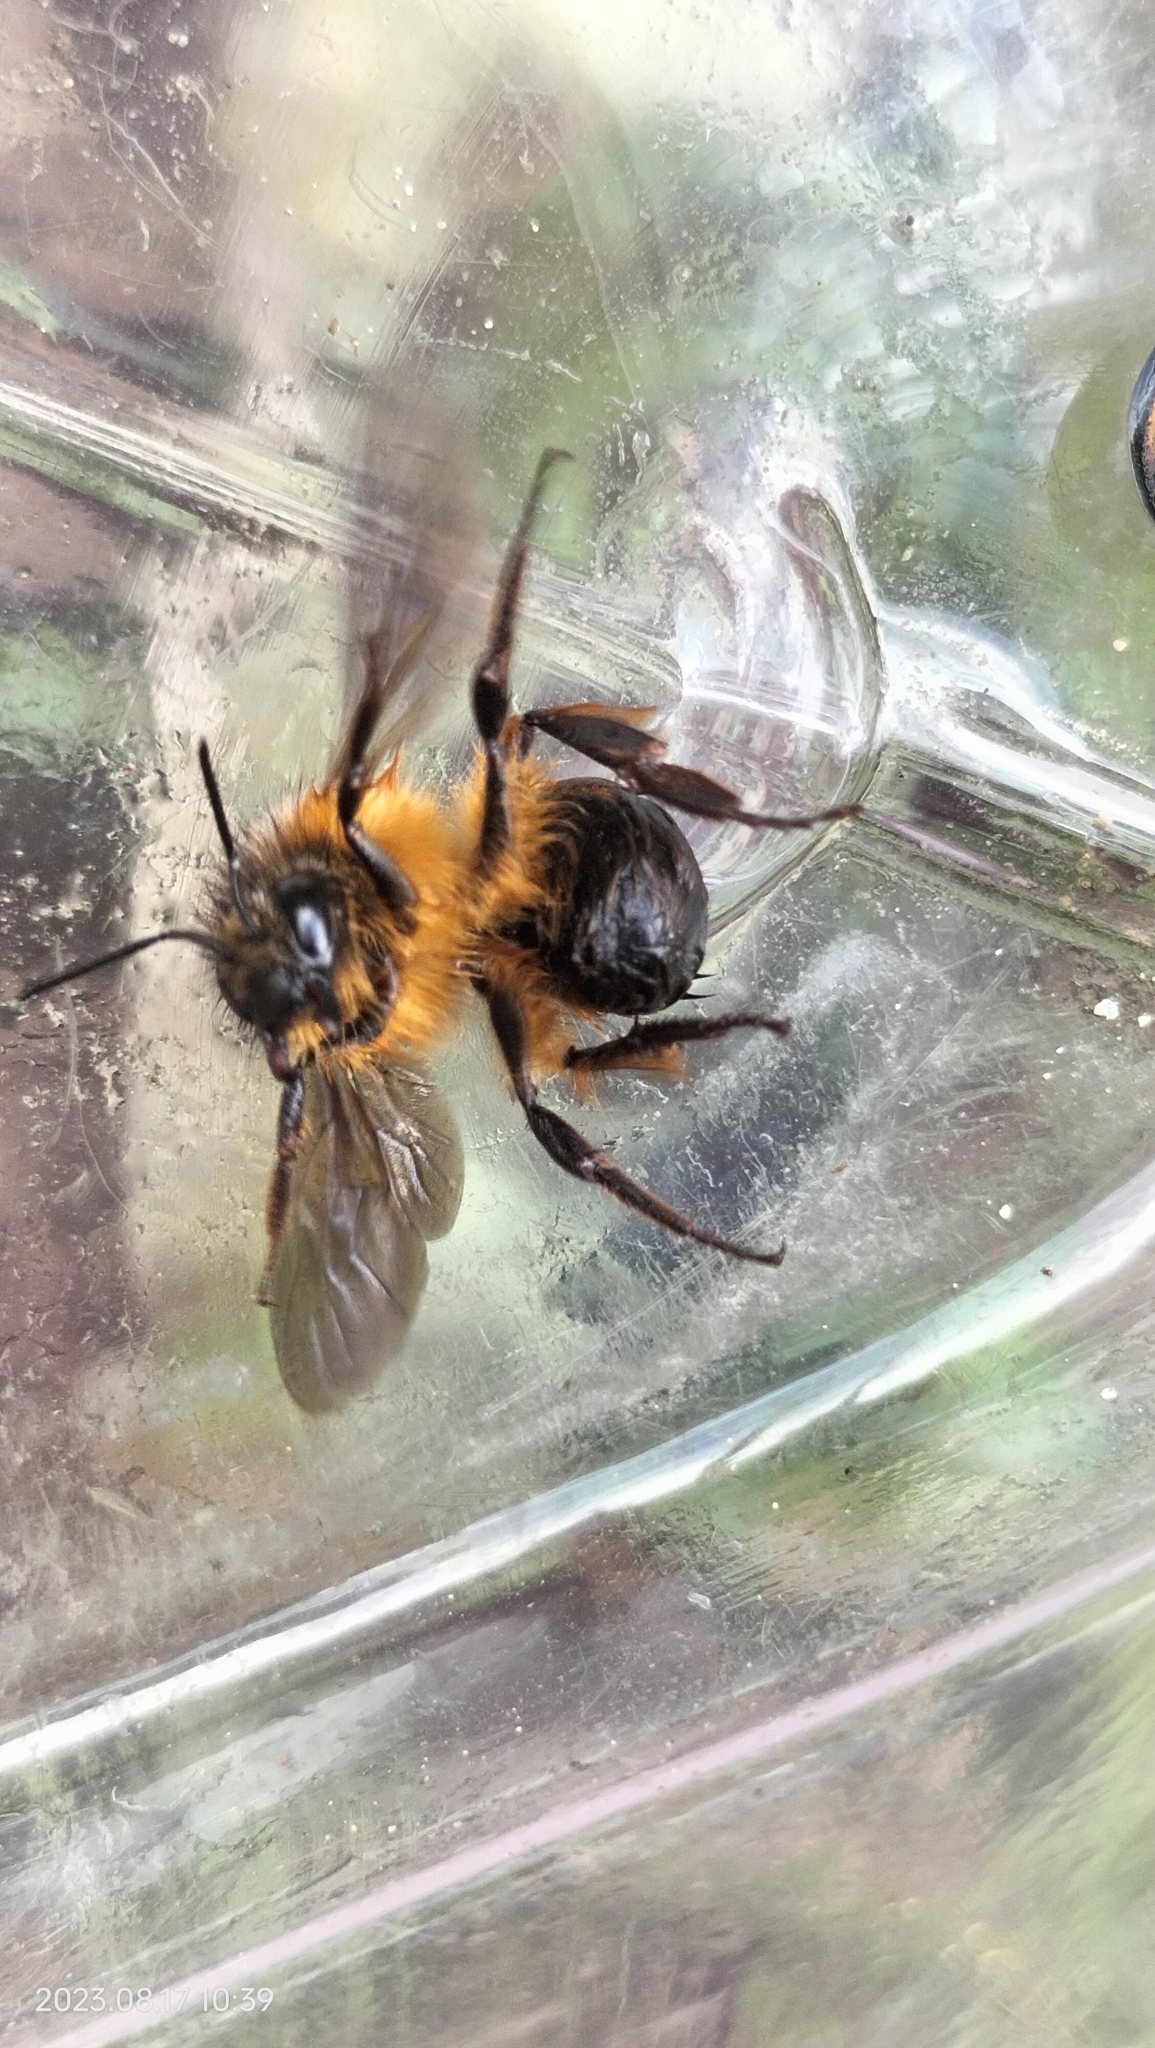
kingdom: Animalia
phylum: Arthropoda
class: Insecta
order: Hymenoptera
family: Apidae
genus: Bombus
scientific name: Bombus handlirschi
